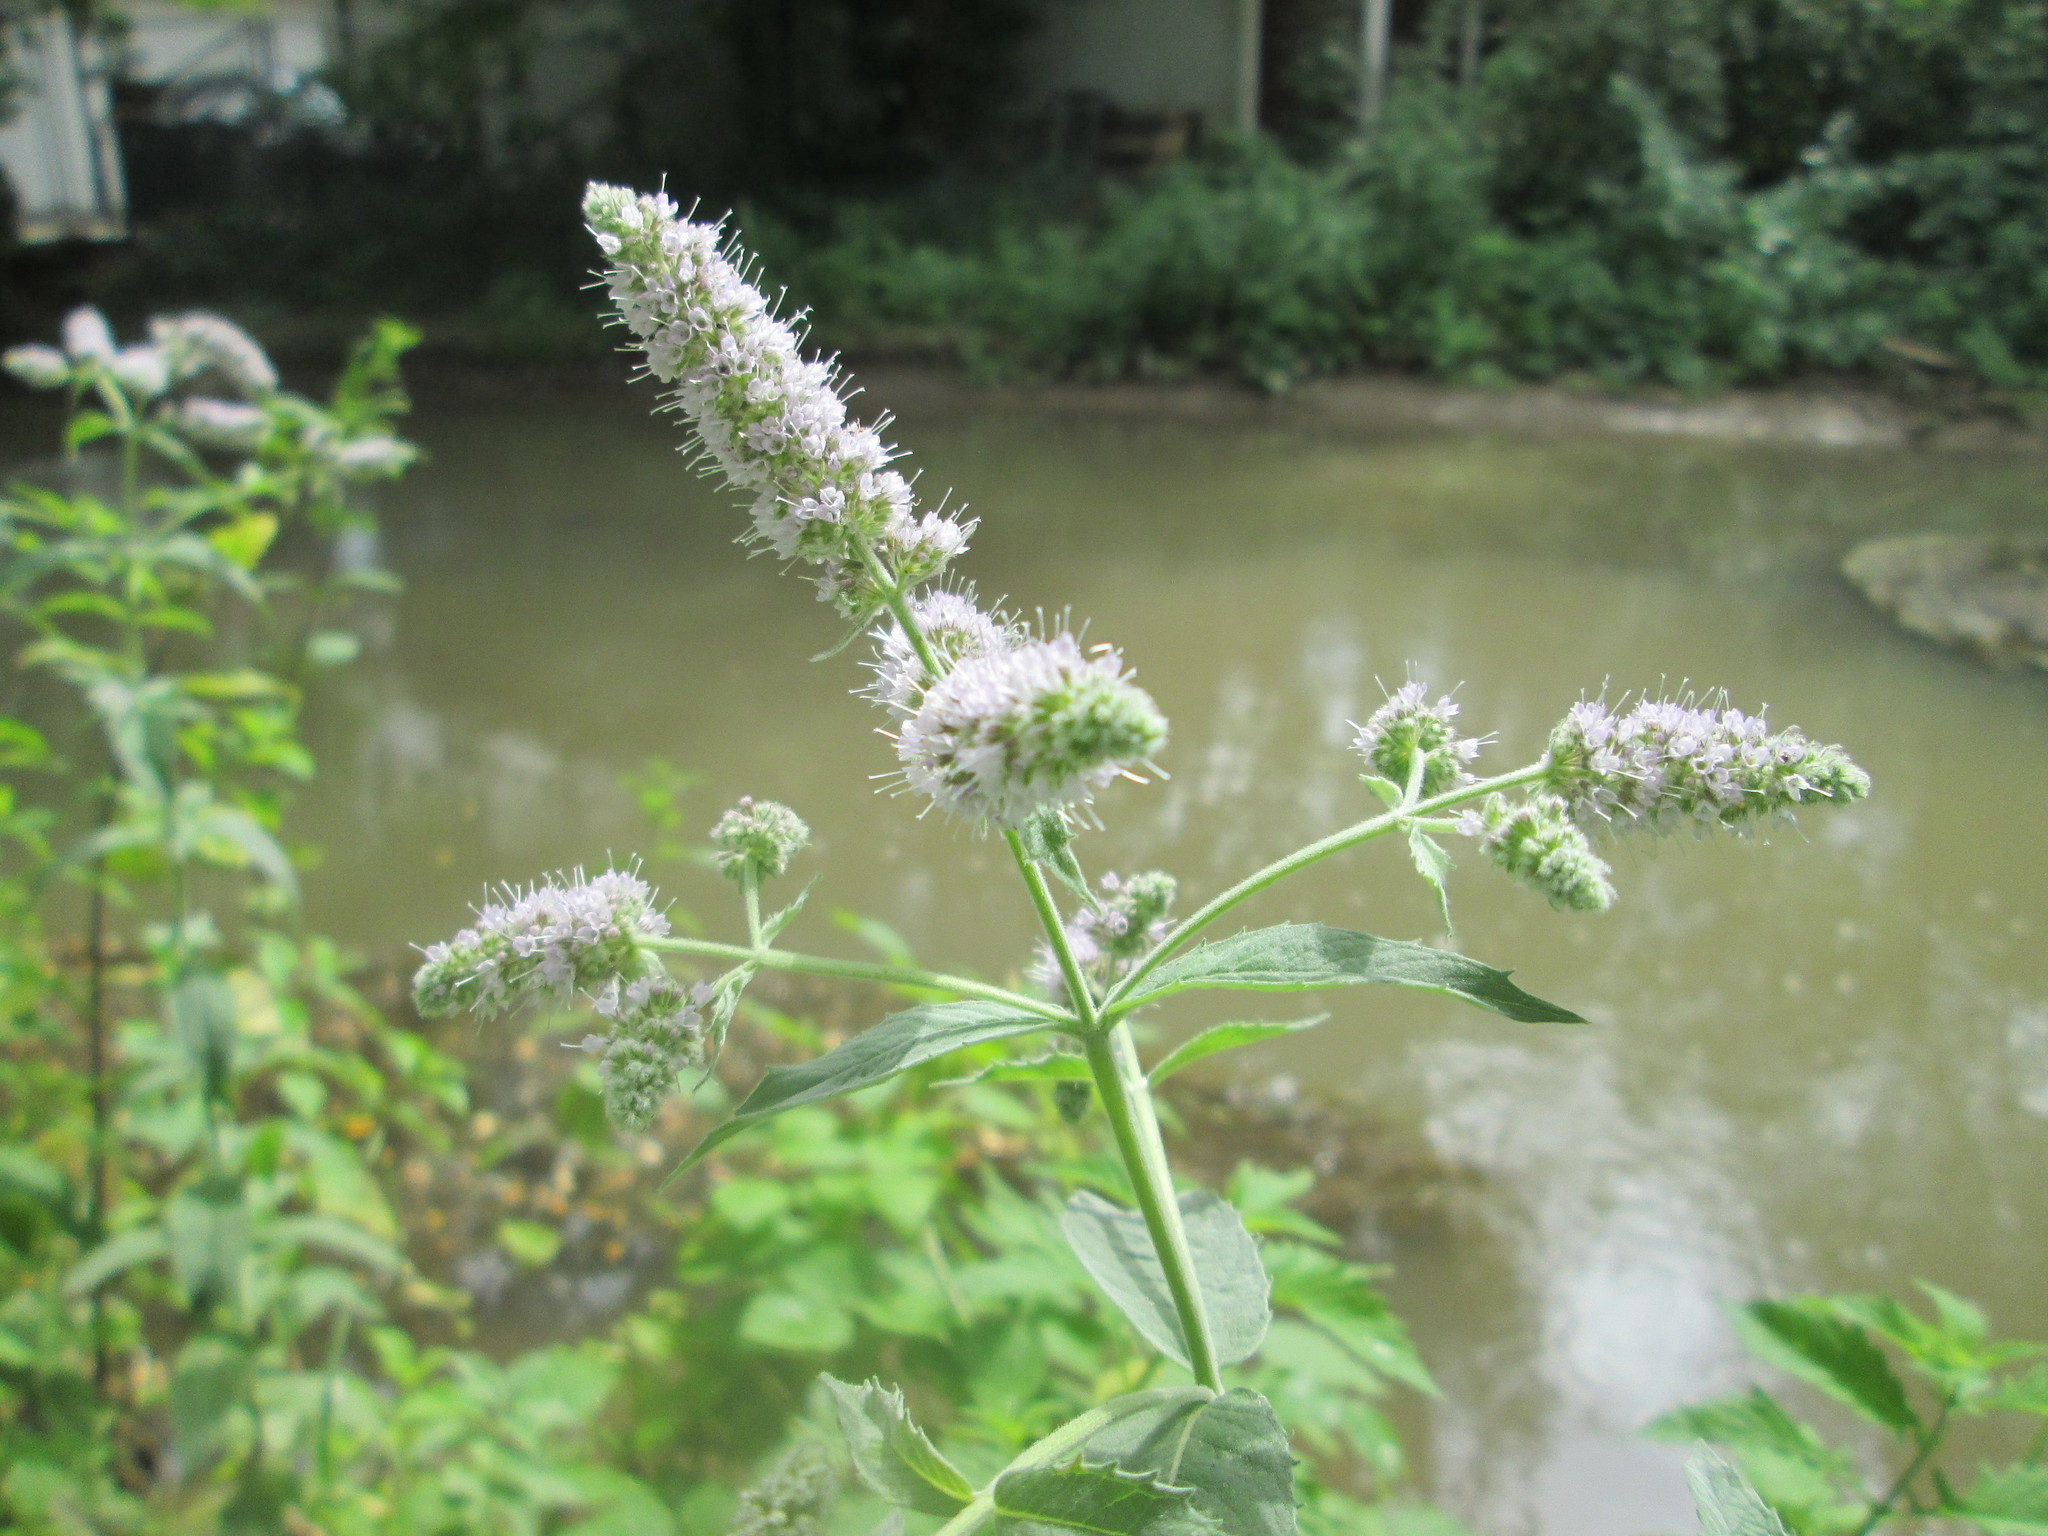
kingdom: Plantae
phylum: Tracheophyta
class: Magnoliopsida
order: Lamiales
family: Lamiaceae
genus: Mentha
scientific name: Mentha longifolia
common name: Horse mint
